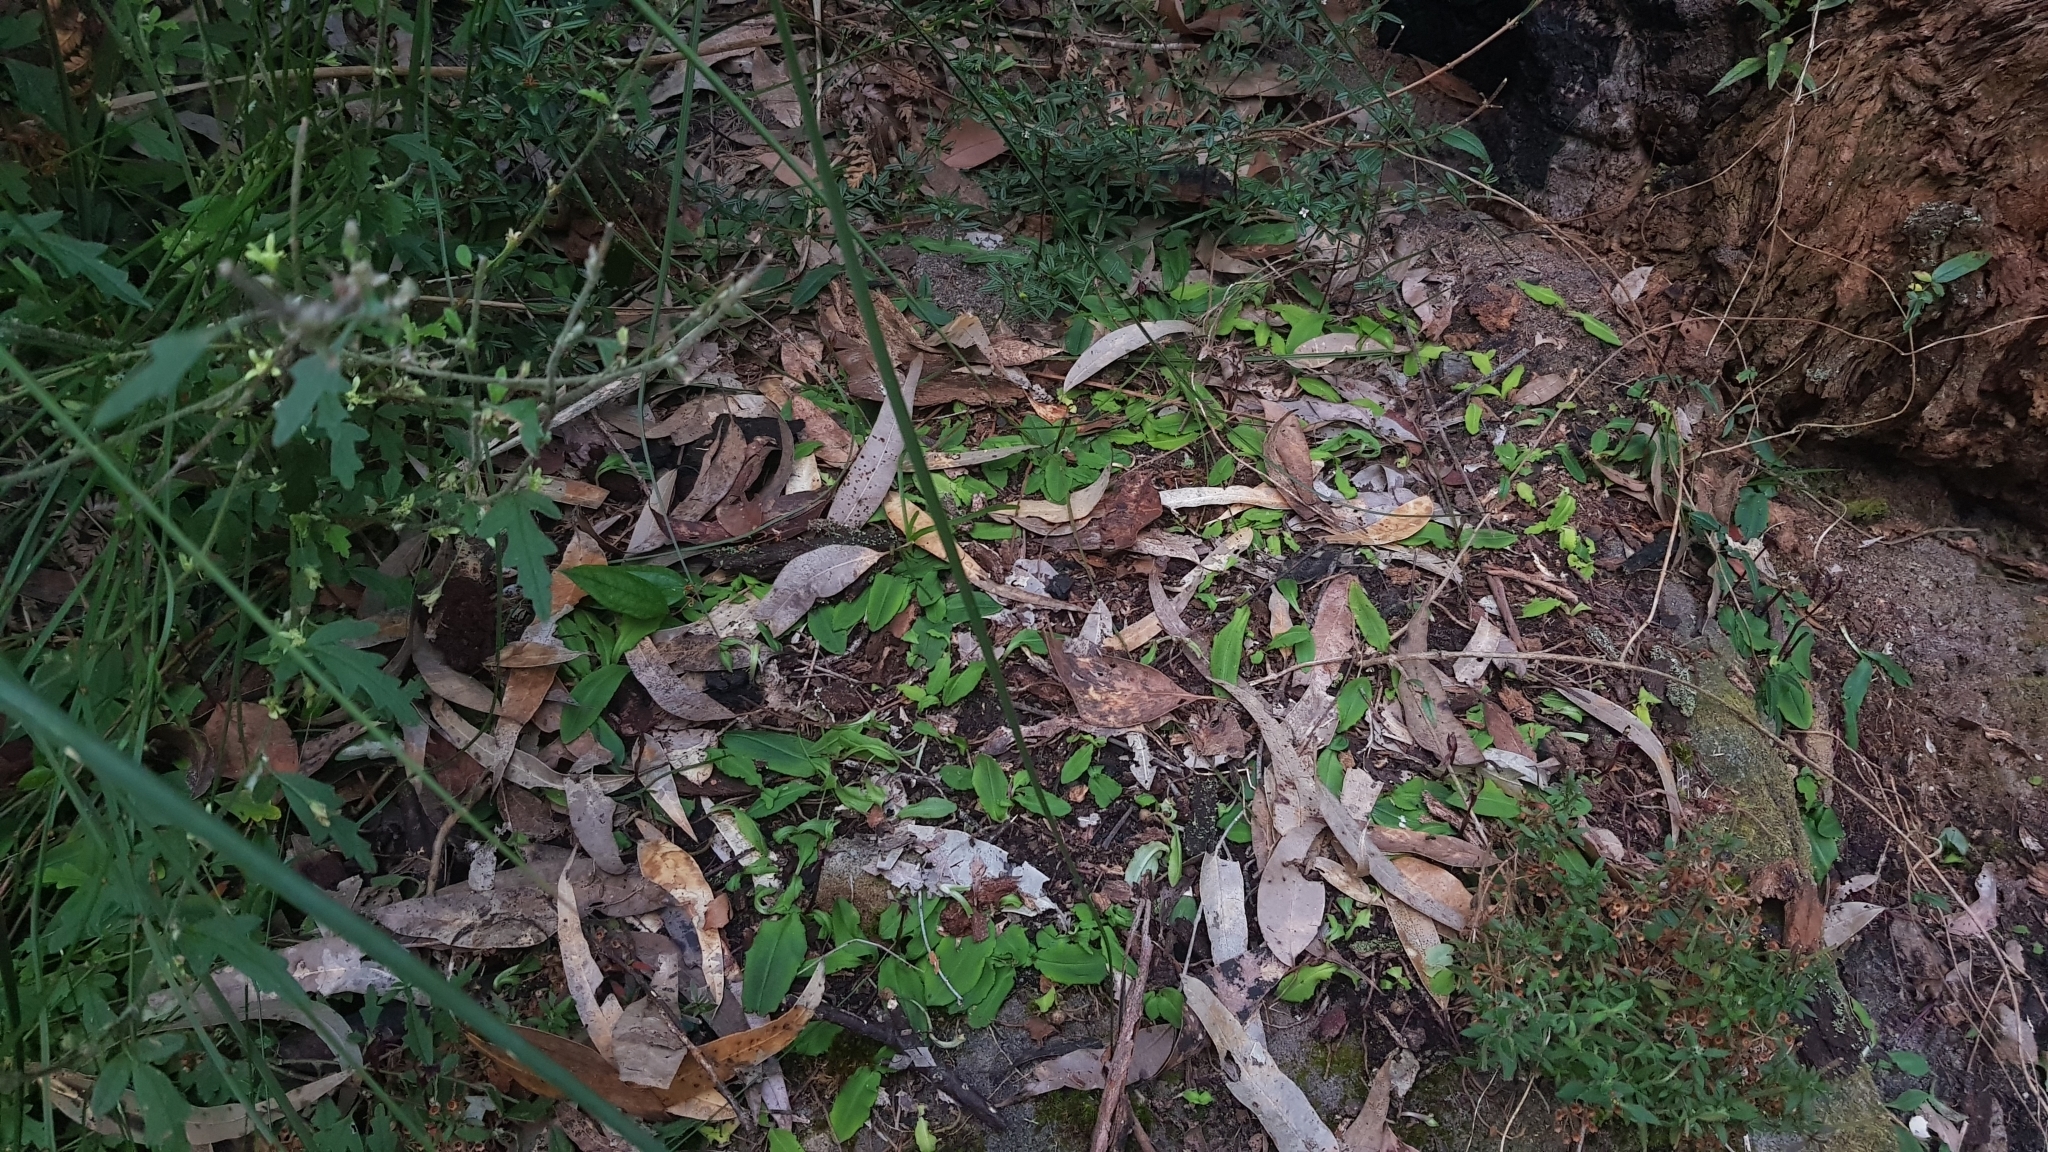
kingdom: Plantae
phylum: Tracheophyta
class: Liliopsida
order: Asparagales
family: Orchidaceae
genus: Chiloglottis
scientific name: Chiloglottis formicifera
